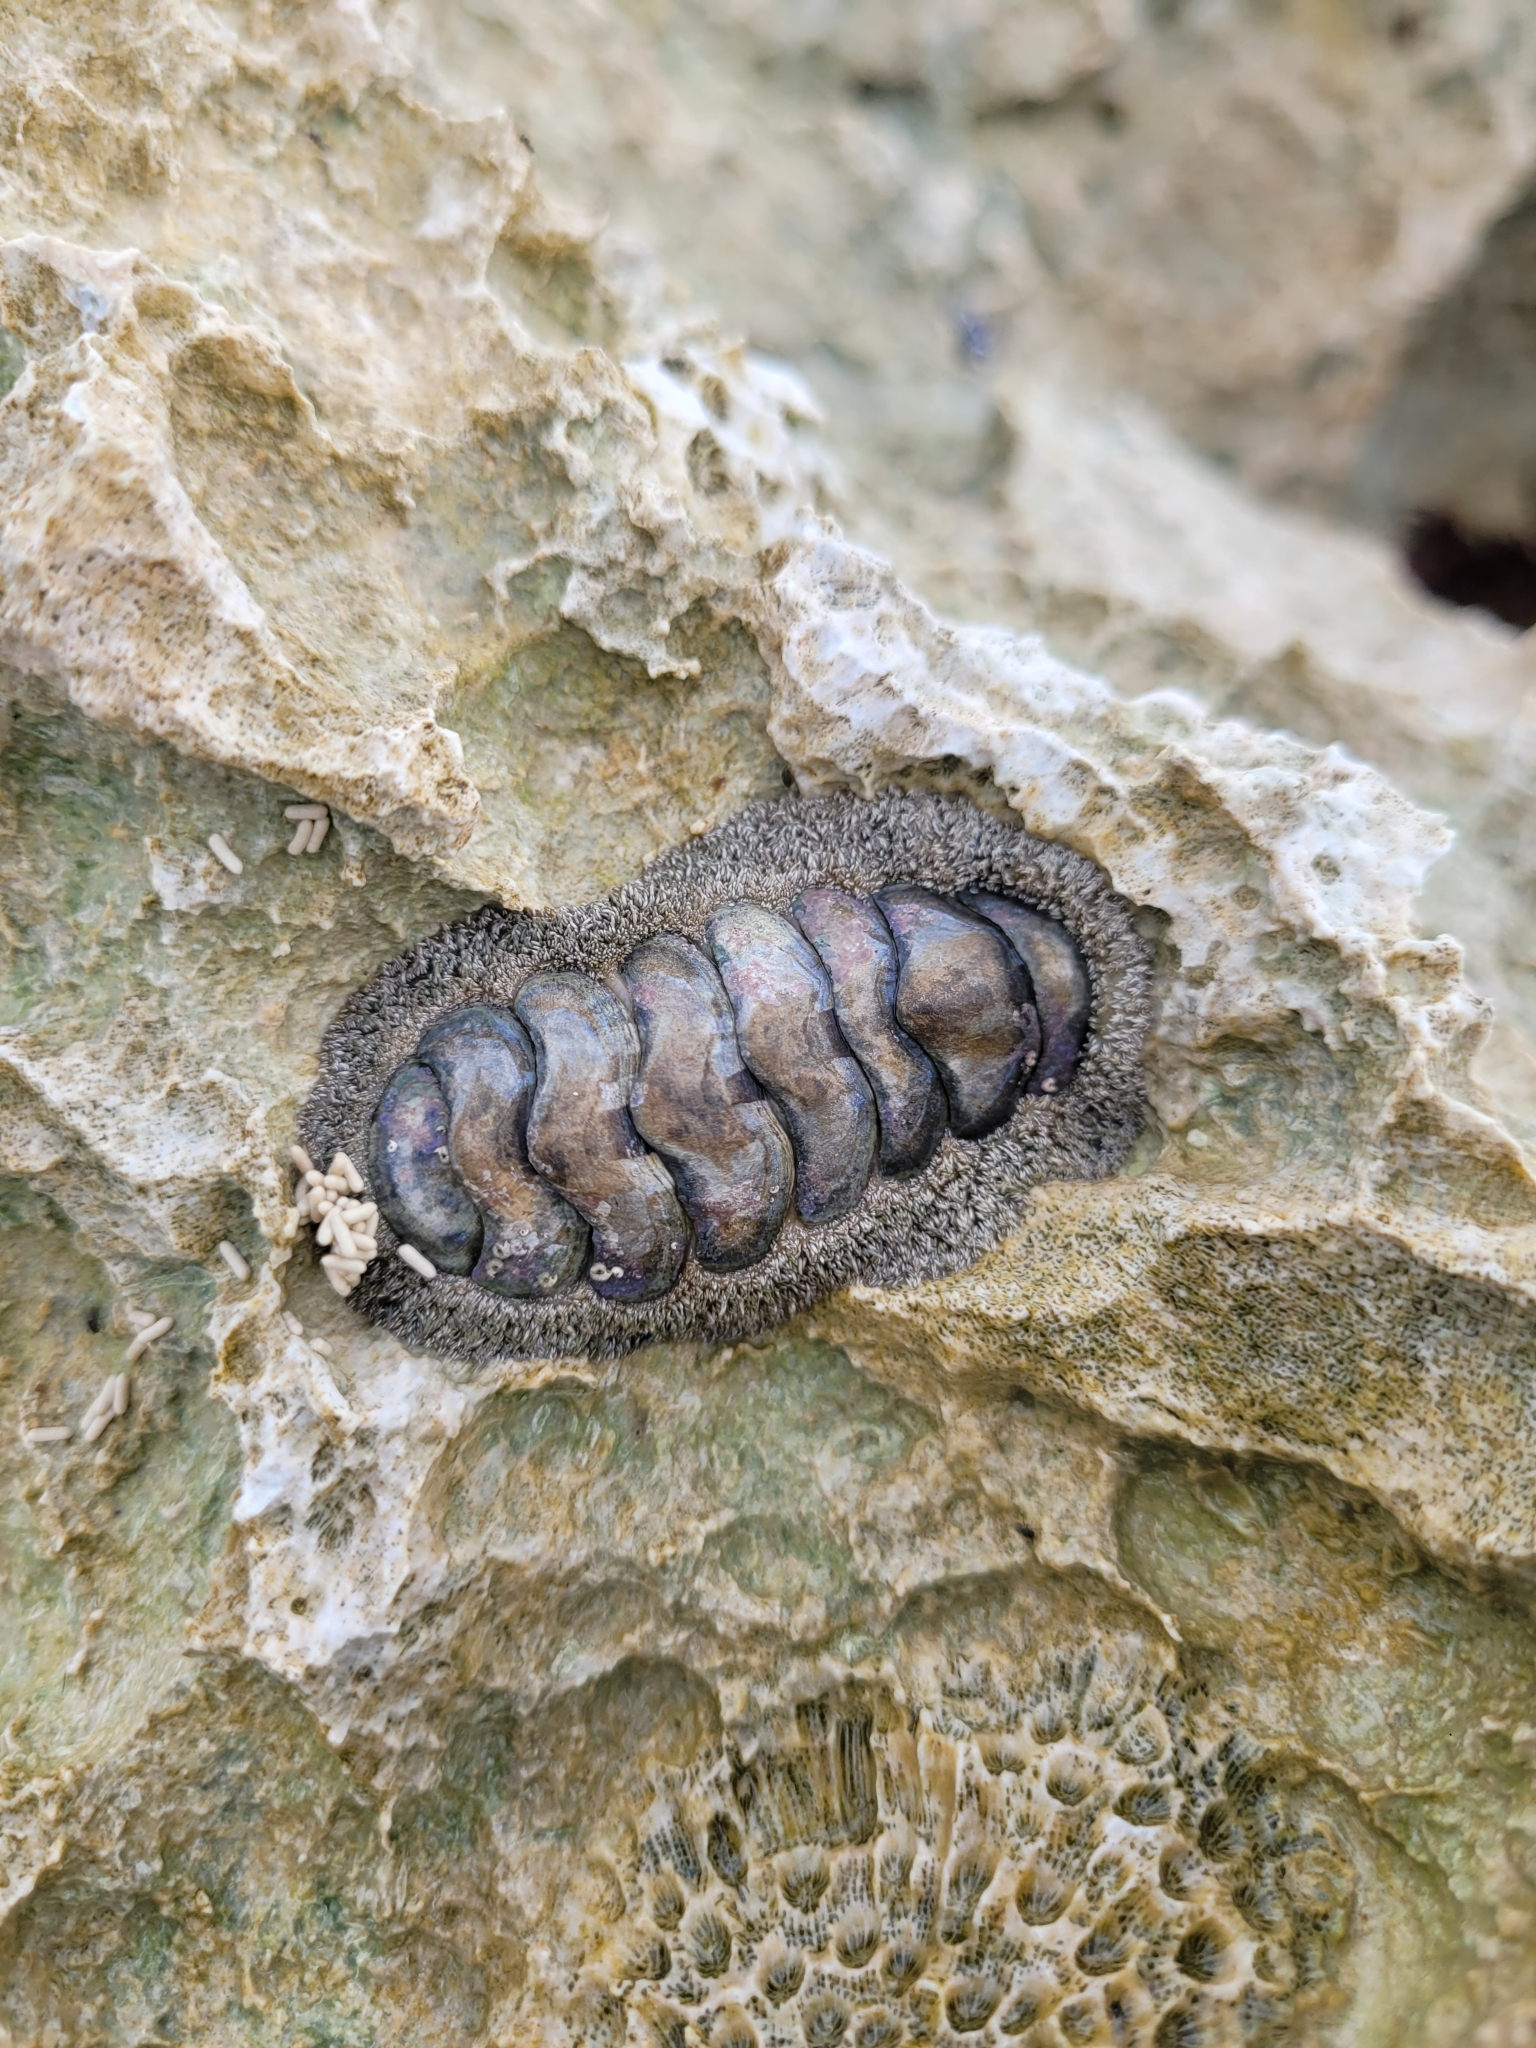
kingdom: Animalia
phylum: Mollusca
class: Polyplacophora
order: Chitonida
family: Chitonidae
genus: Acanthopleura
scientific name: Acanthopleura granulata
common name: West indian fuzzy chiton
